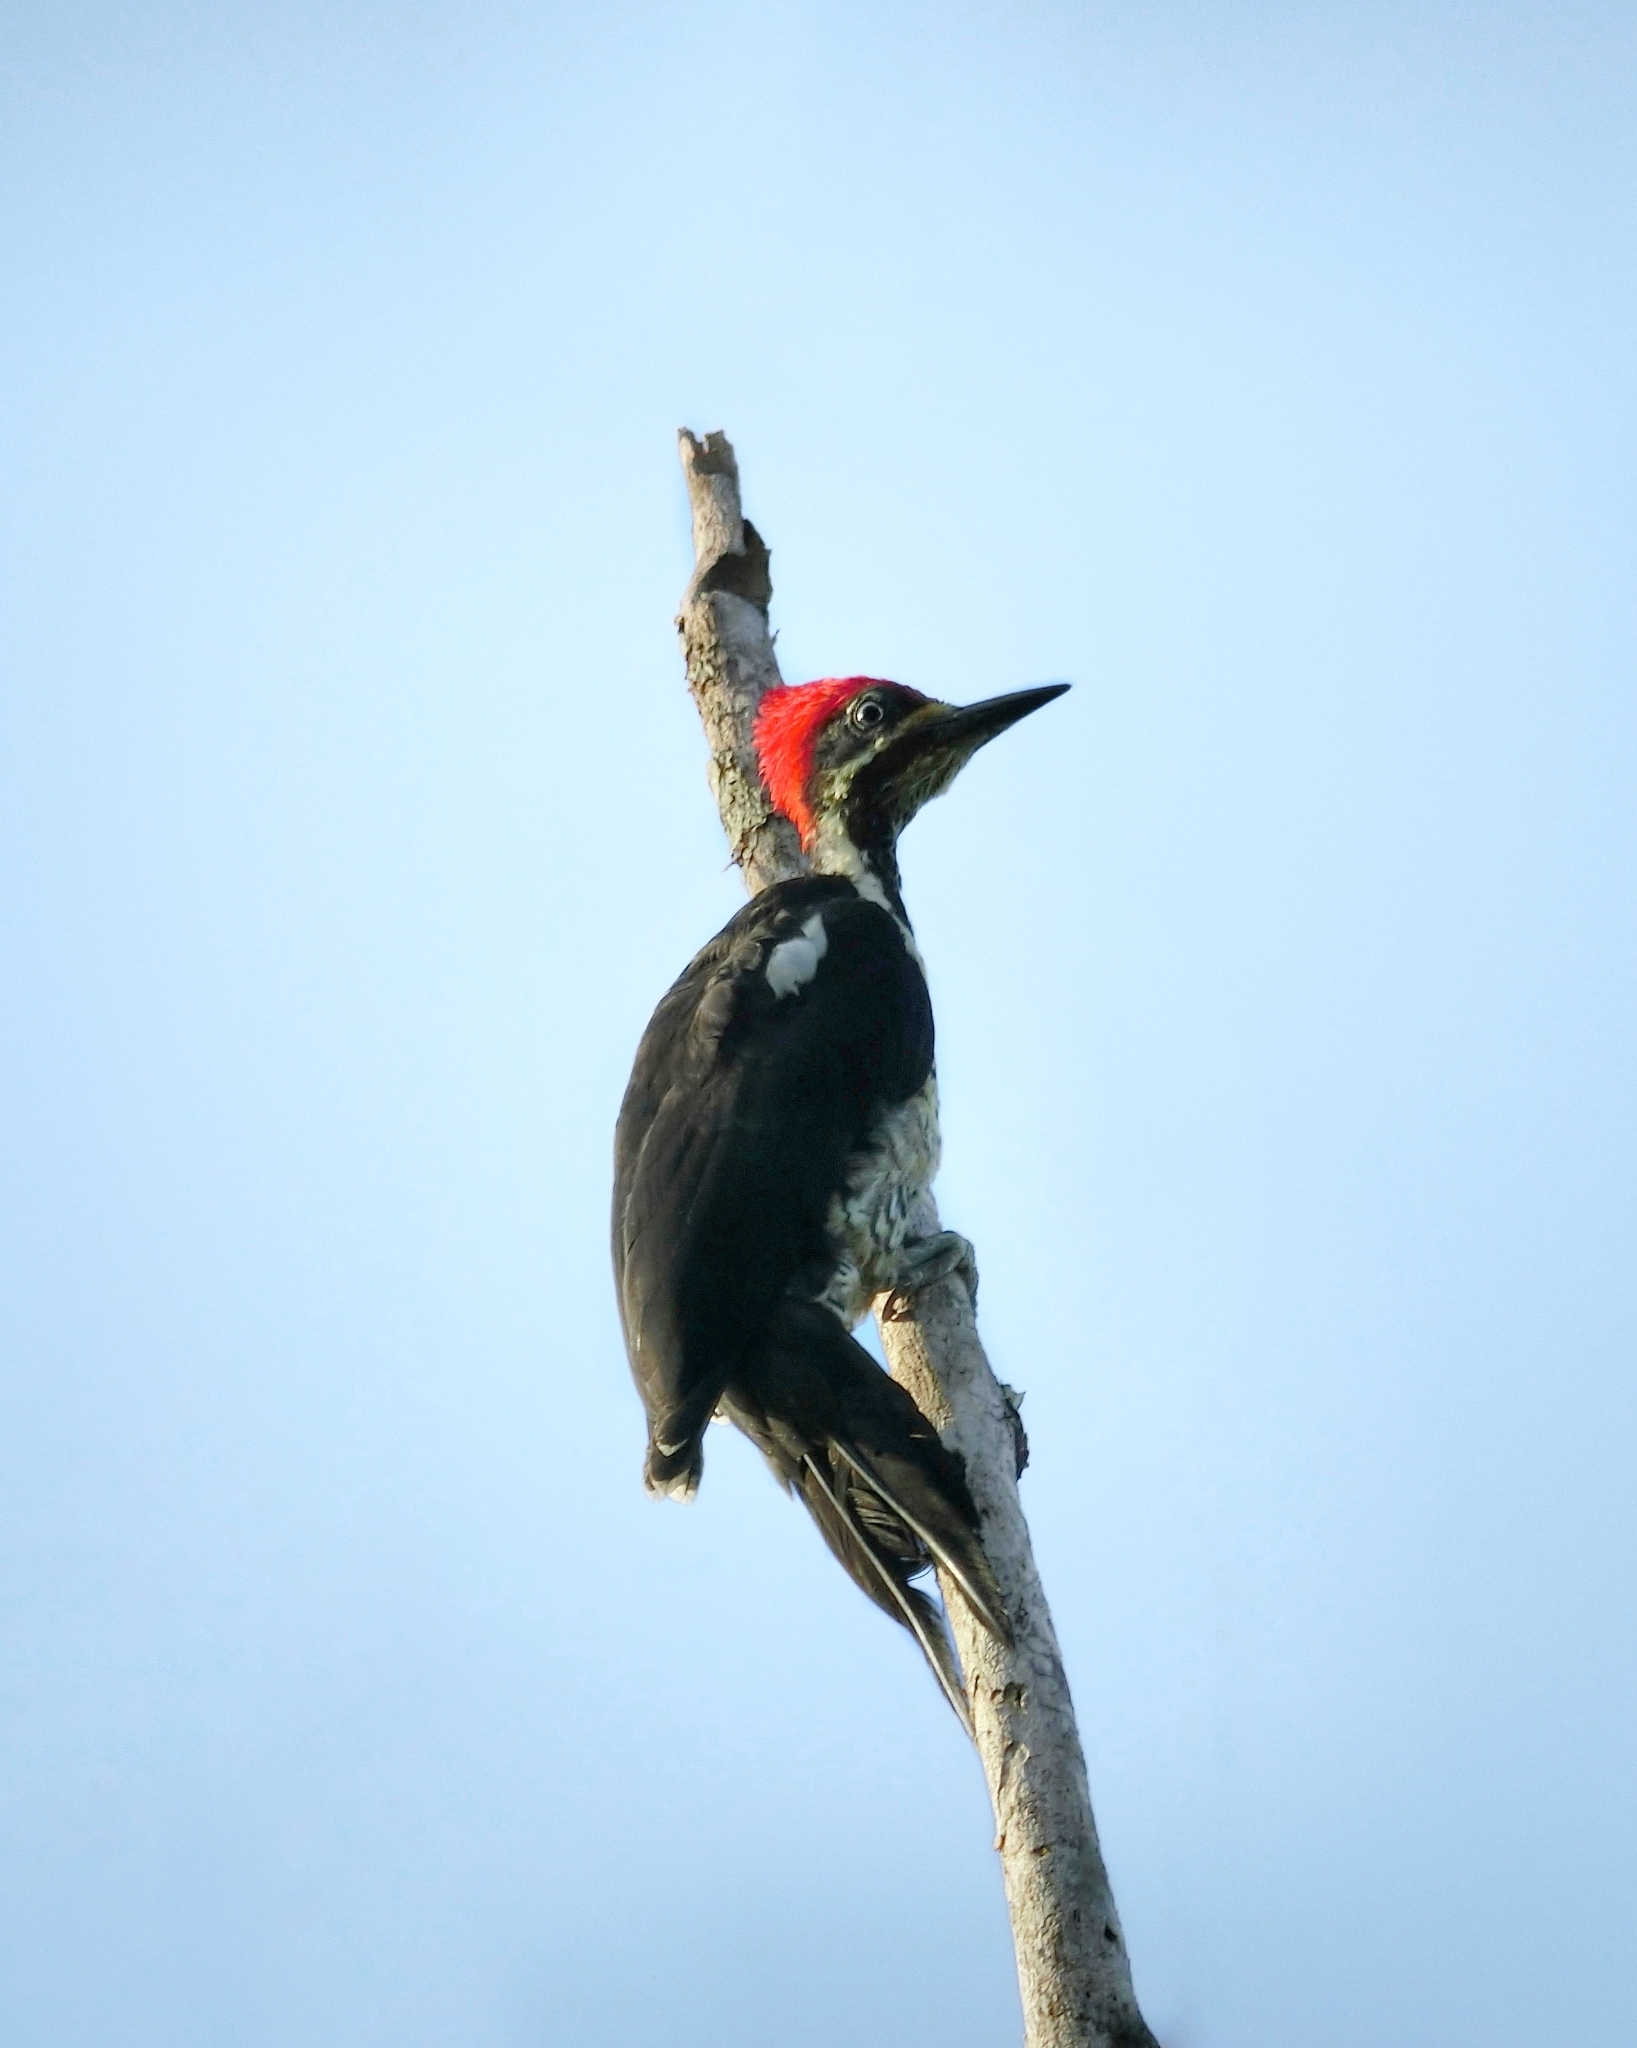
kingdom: Animalia
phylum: Chordata
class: Aves
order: Piciformes
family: Picidae
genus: Dryocopus
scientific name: Dryocopus lineatus
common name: Lineated woodpecker
